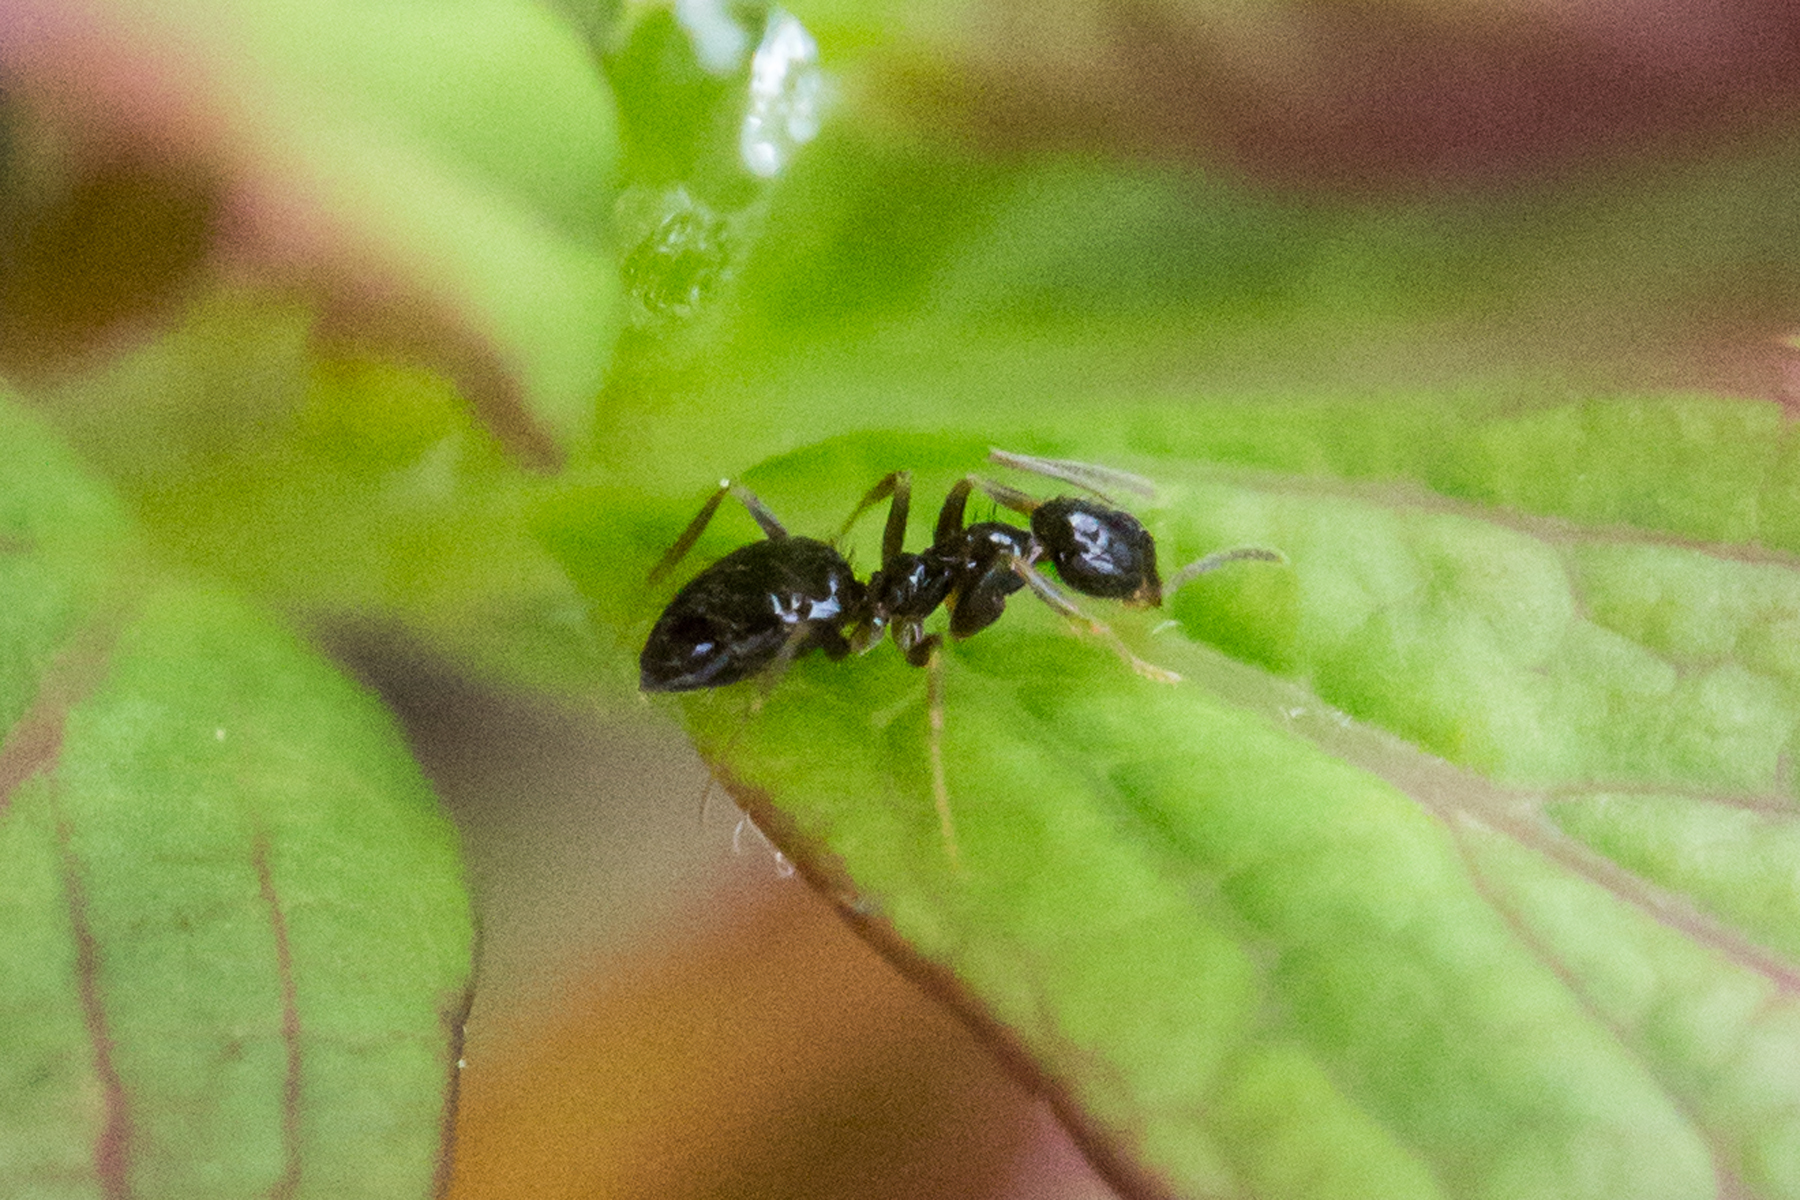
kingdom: Animalia
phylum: Arthropoda
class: Insecta
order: Hymenoptera
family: Formicidae
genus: Prenolepis
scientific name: Prenolepis imparis
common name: Small honey ant
